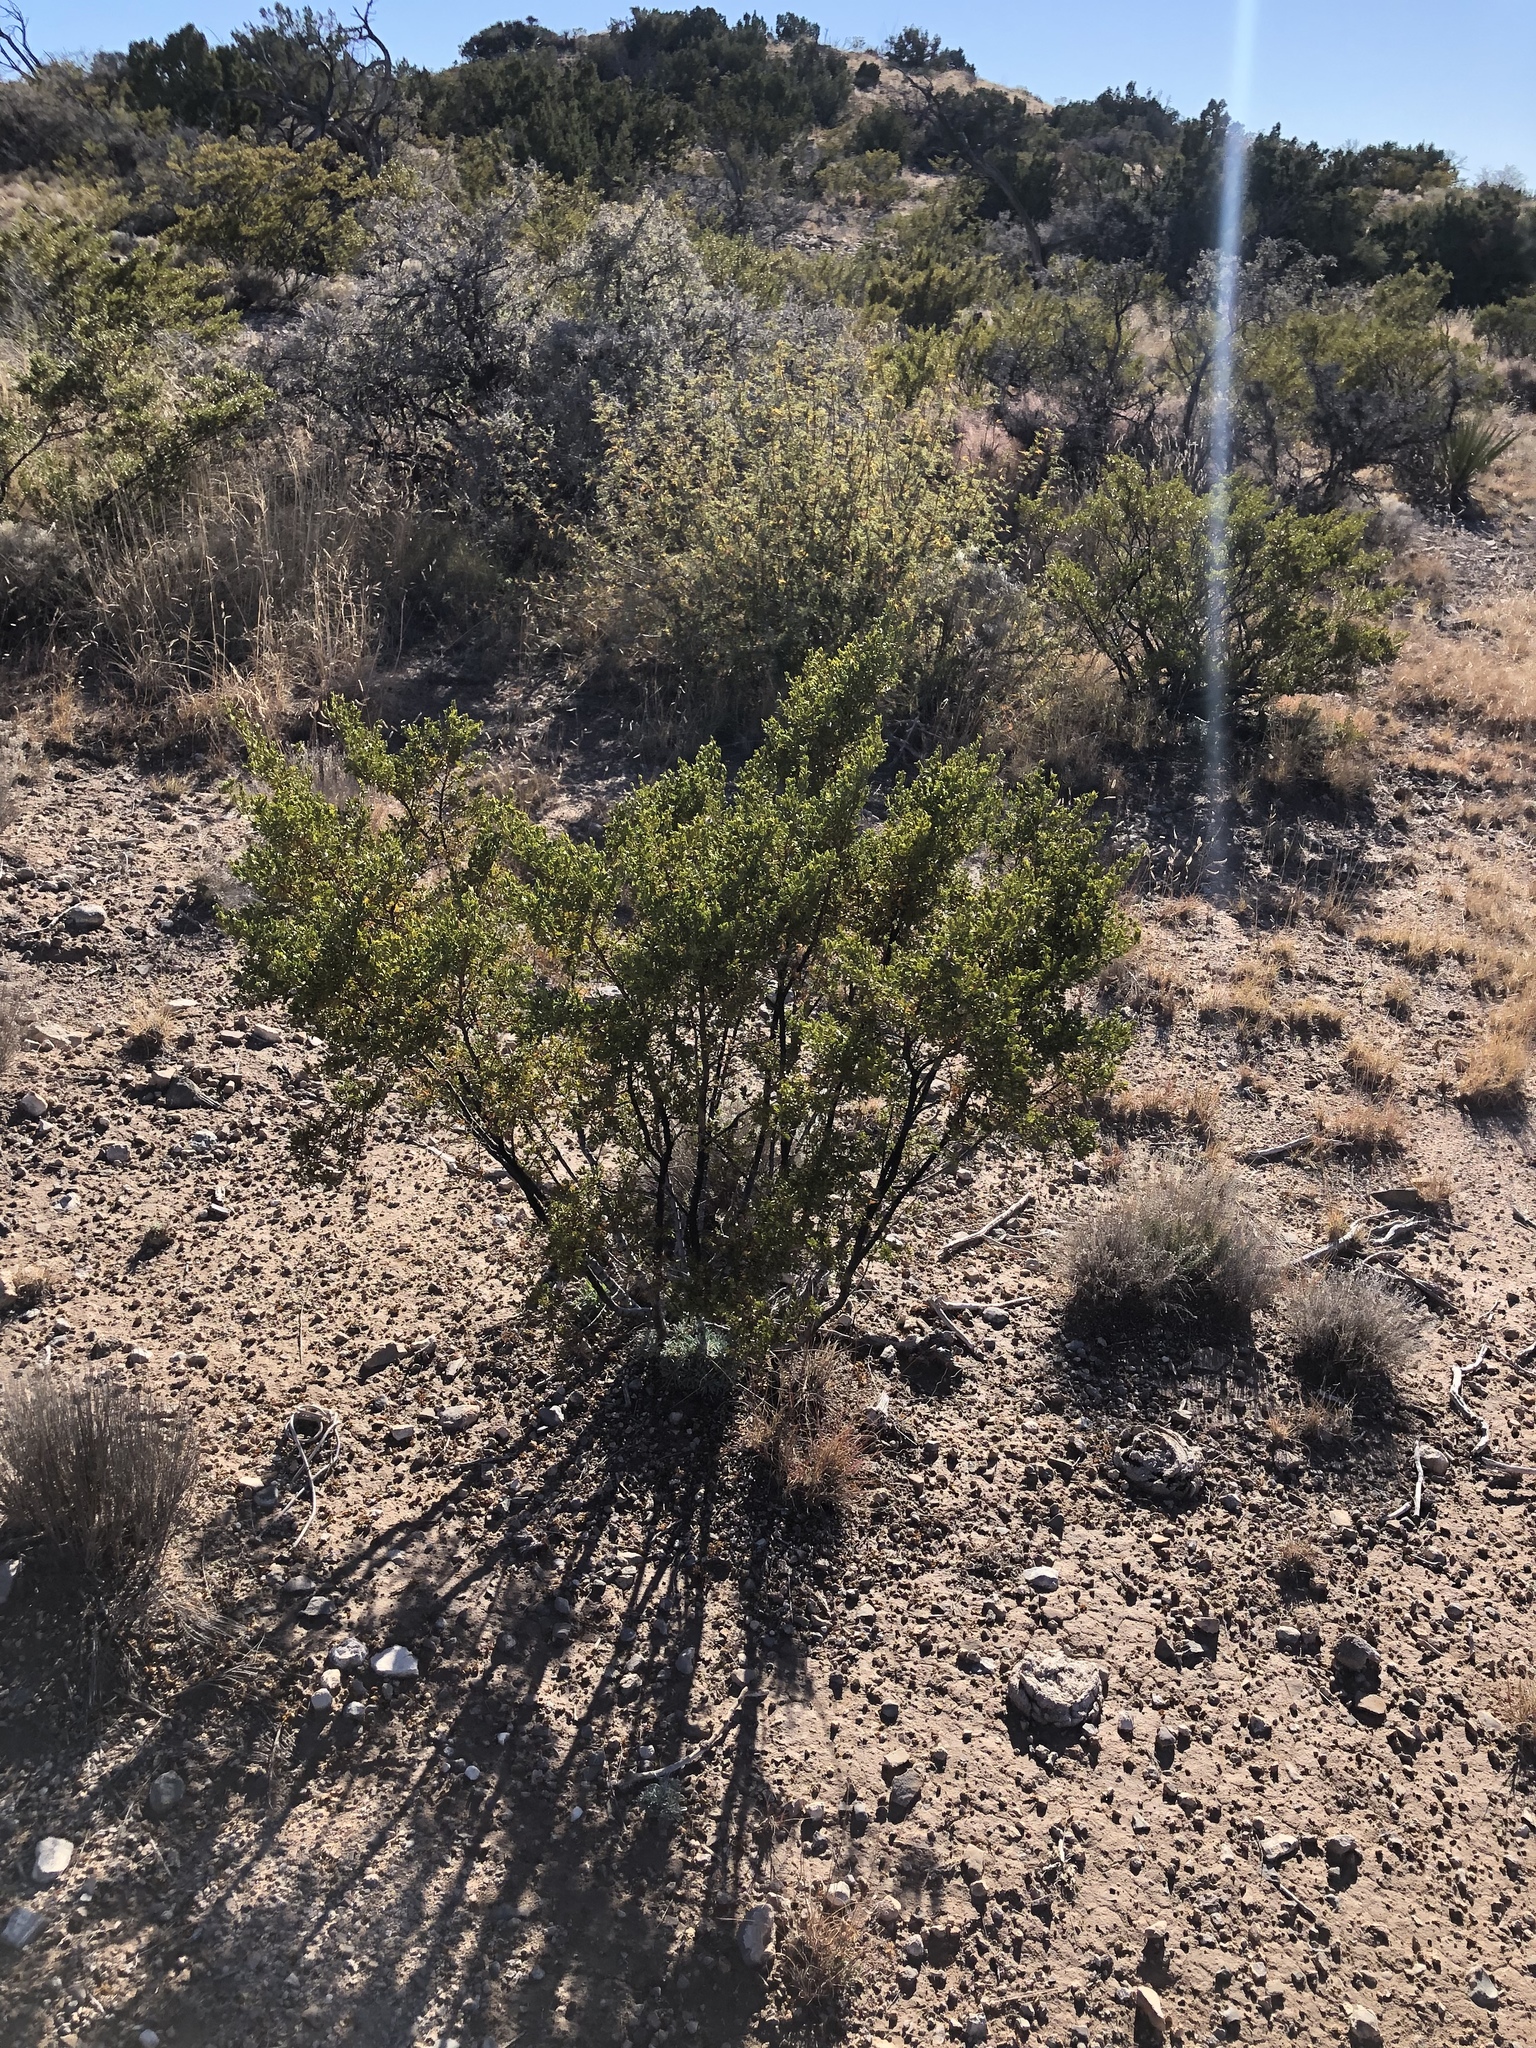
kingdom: Plantae
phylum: Tracheophyta
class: Magnoliopsida
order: Zygophyllales
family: Zygophyllaceae
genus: Larrea
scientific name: Larrea tridentata
